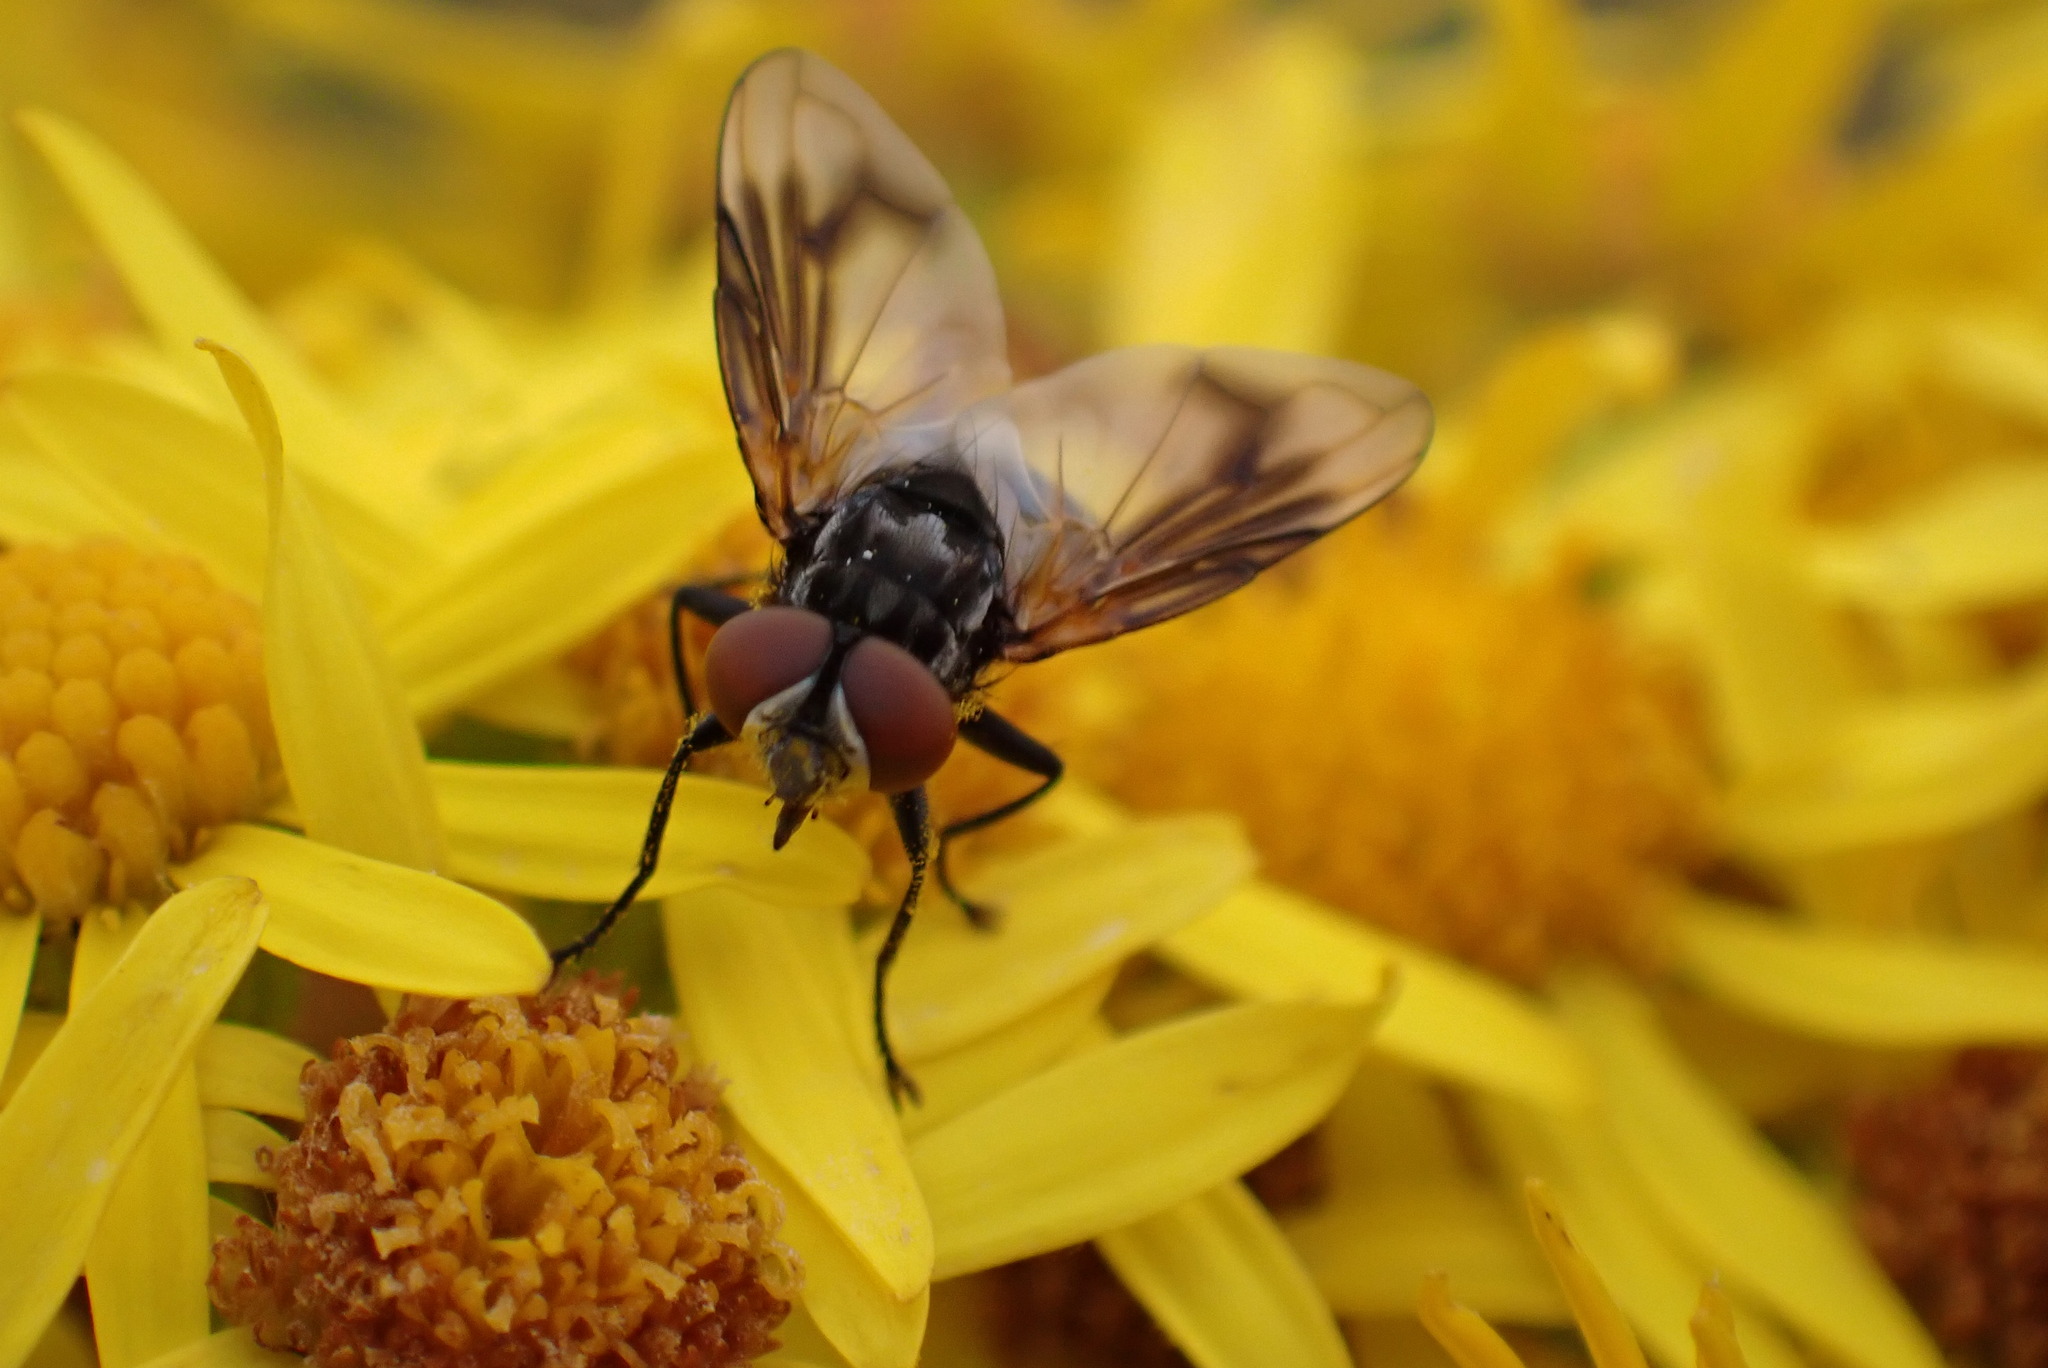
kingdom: Animalia
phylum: Arthropoda
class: Insecta
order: Diptera
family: Tachinidae
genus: Phasia
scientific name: Phasia obesa
